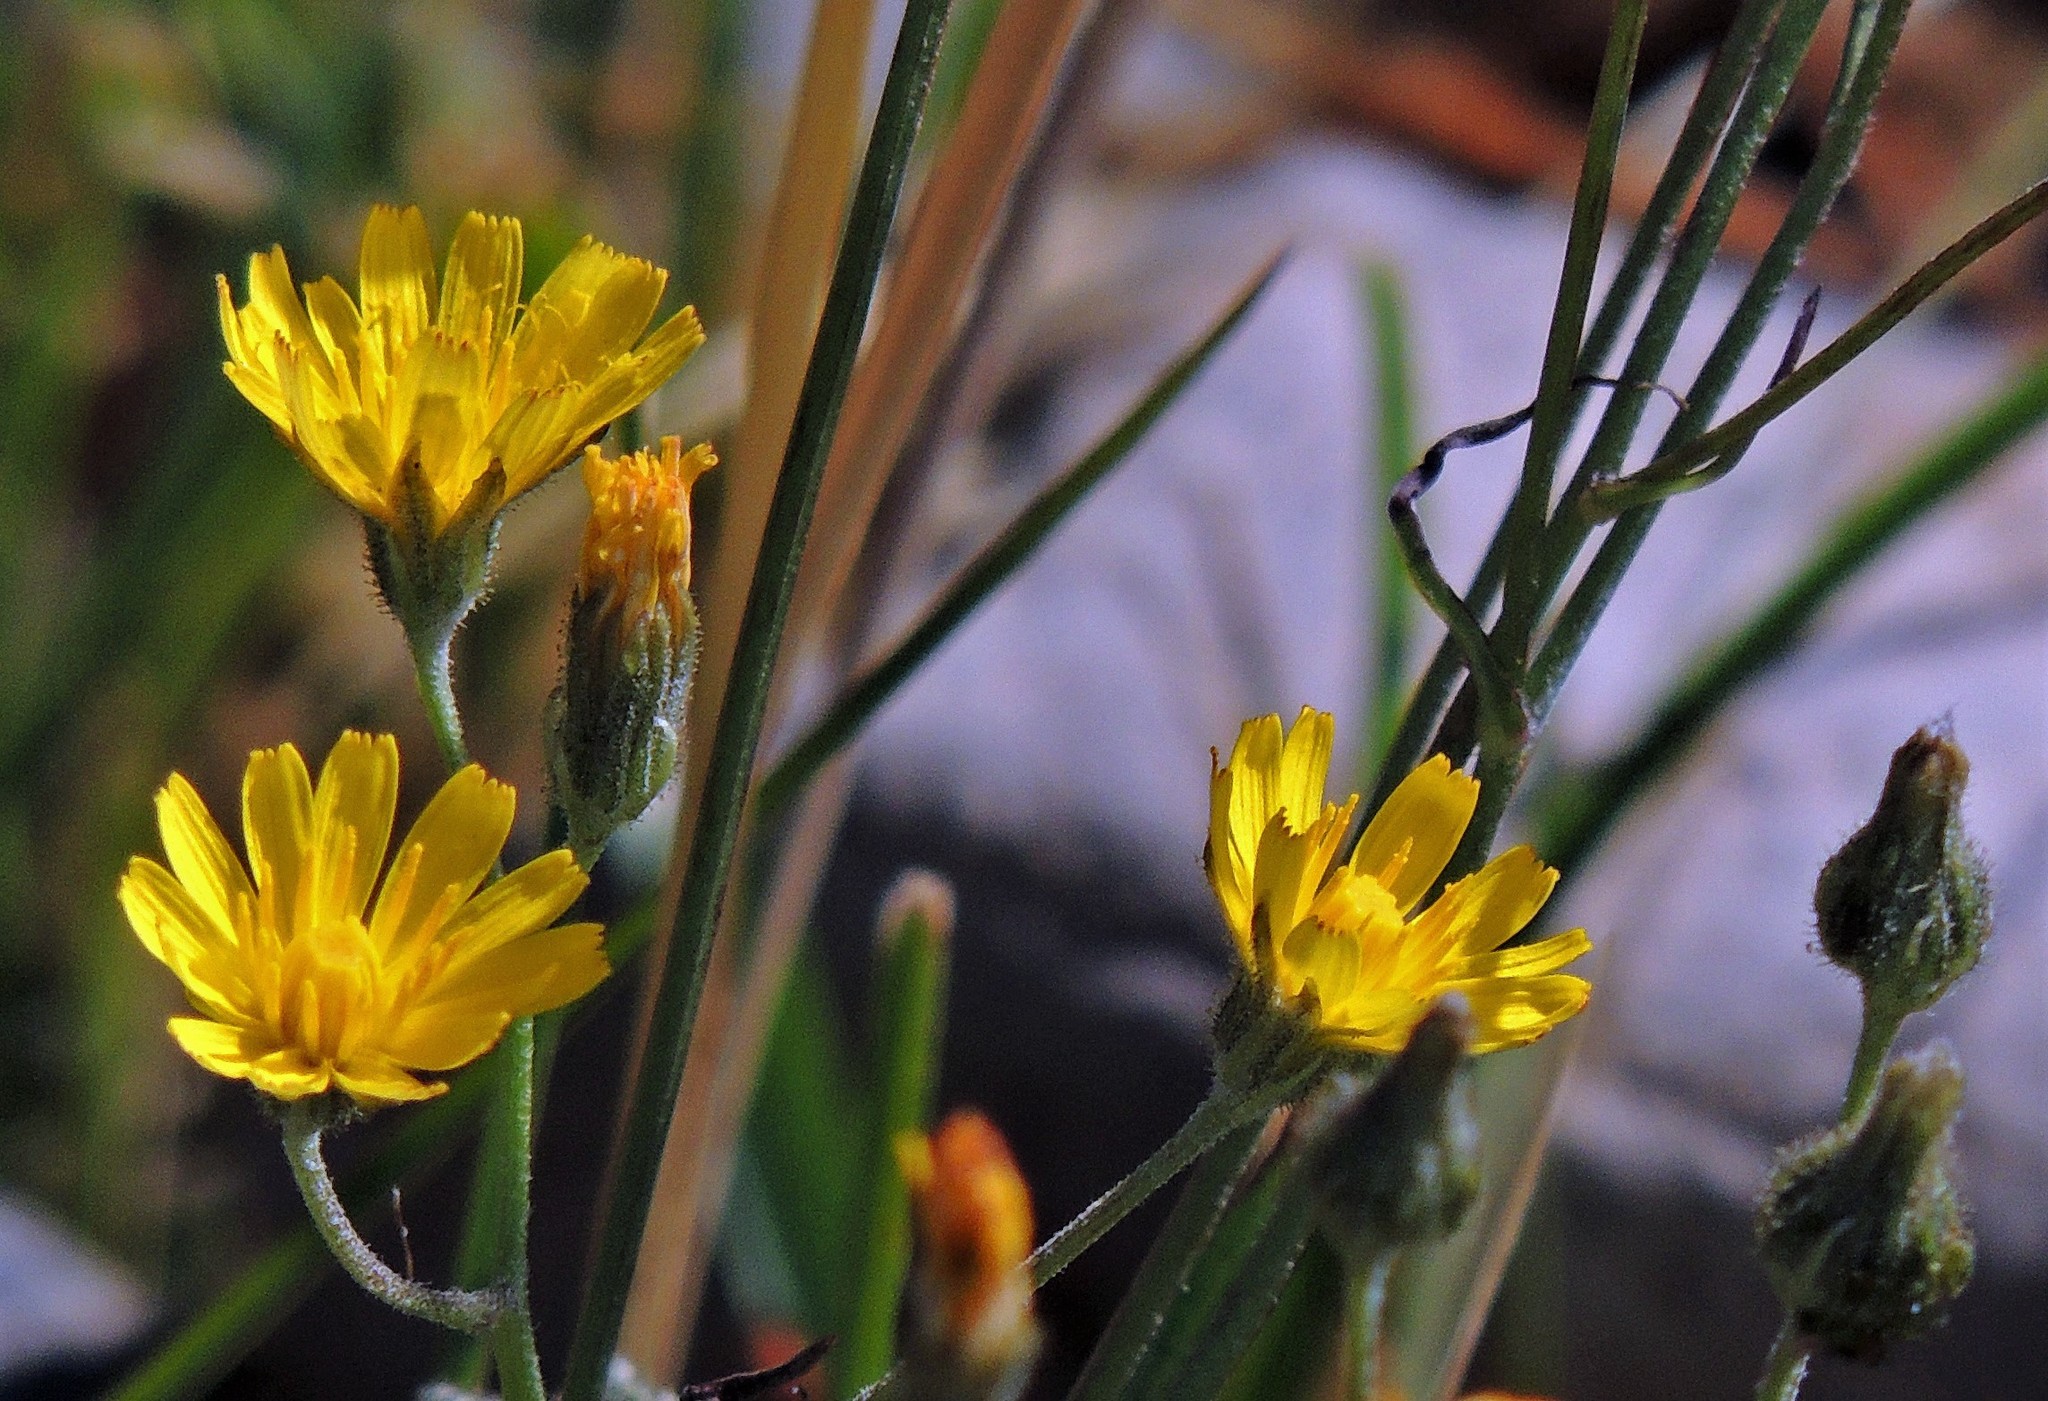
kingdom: Plantae
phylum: Tracheophyta
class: Magnoliopsida
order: Asterales
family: Asteraceae
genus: Crepis
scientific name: Crepis capillaris
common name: Smooth hawksbeard
